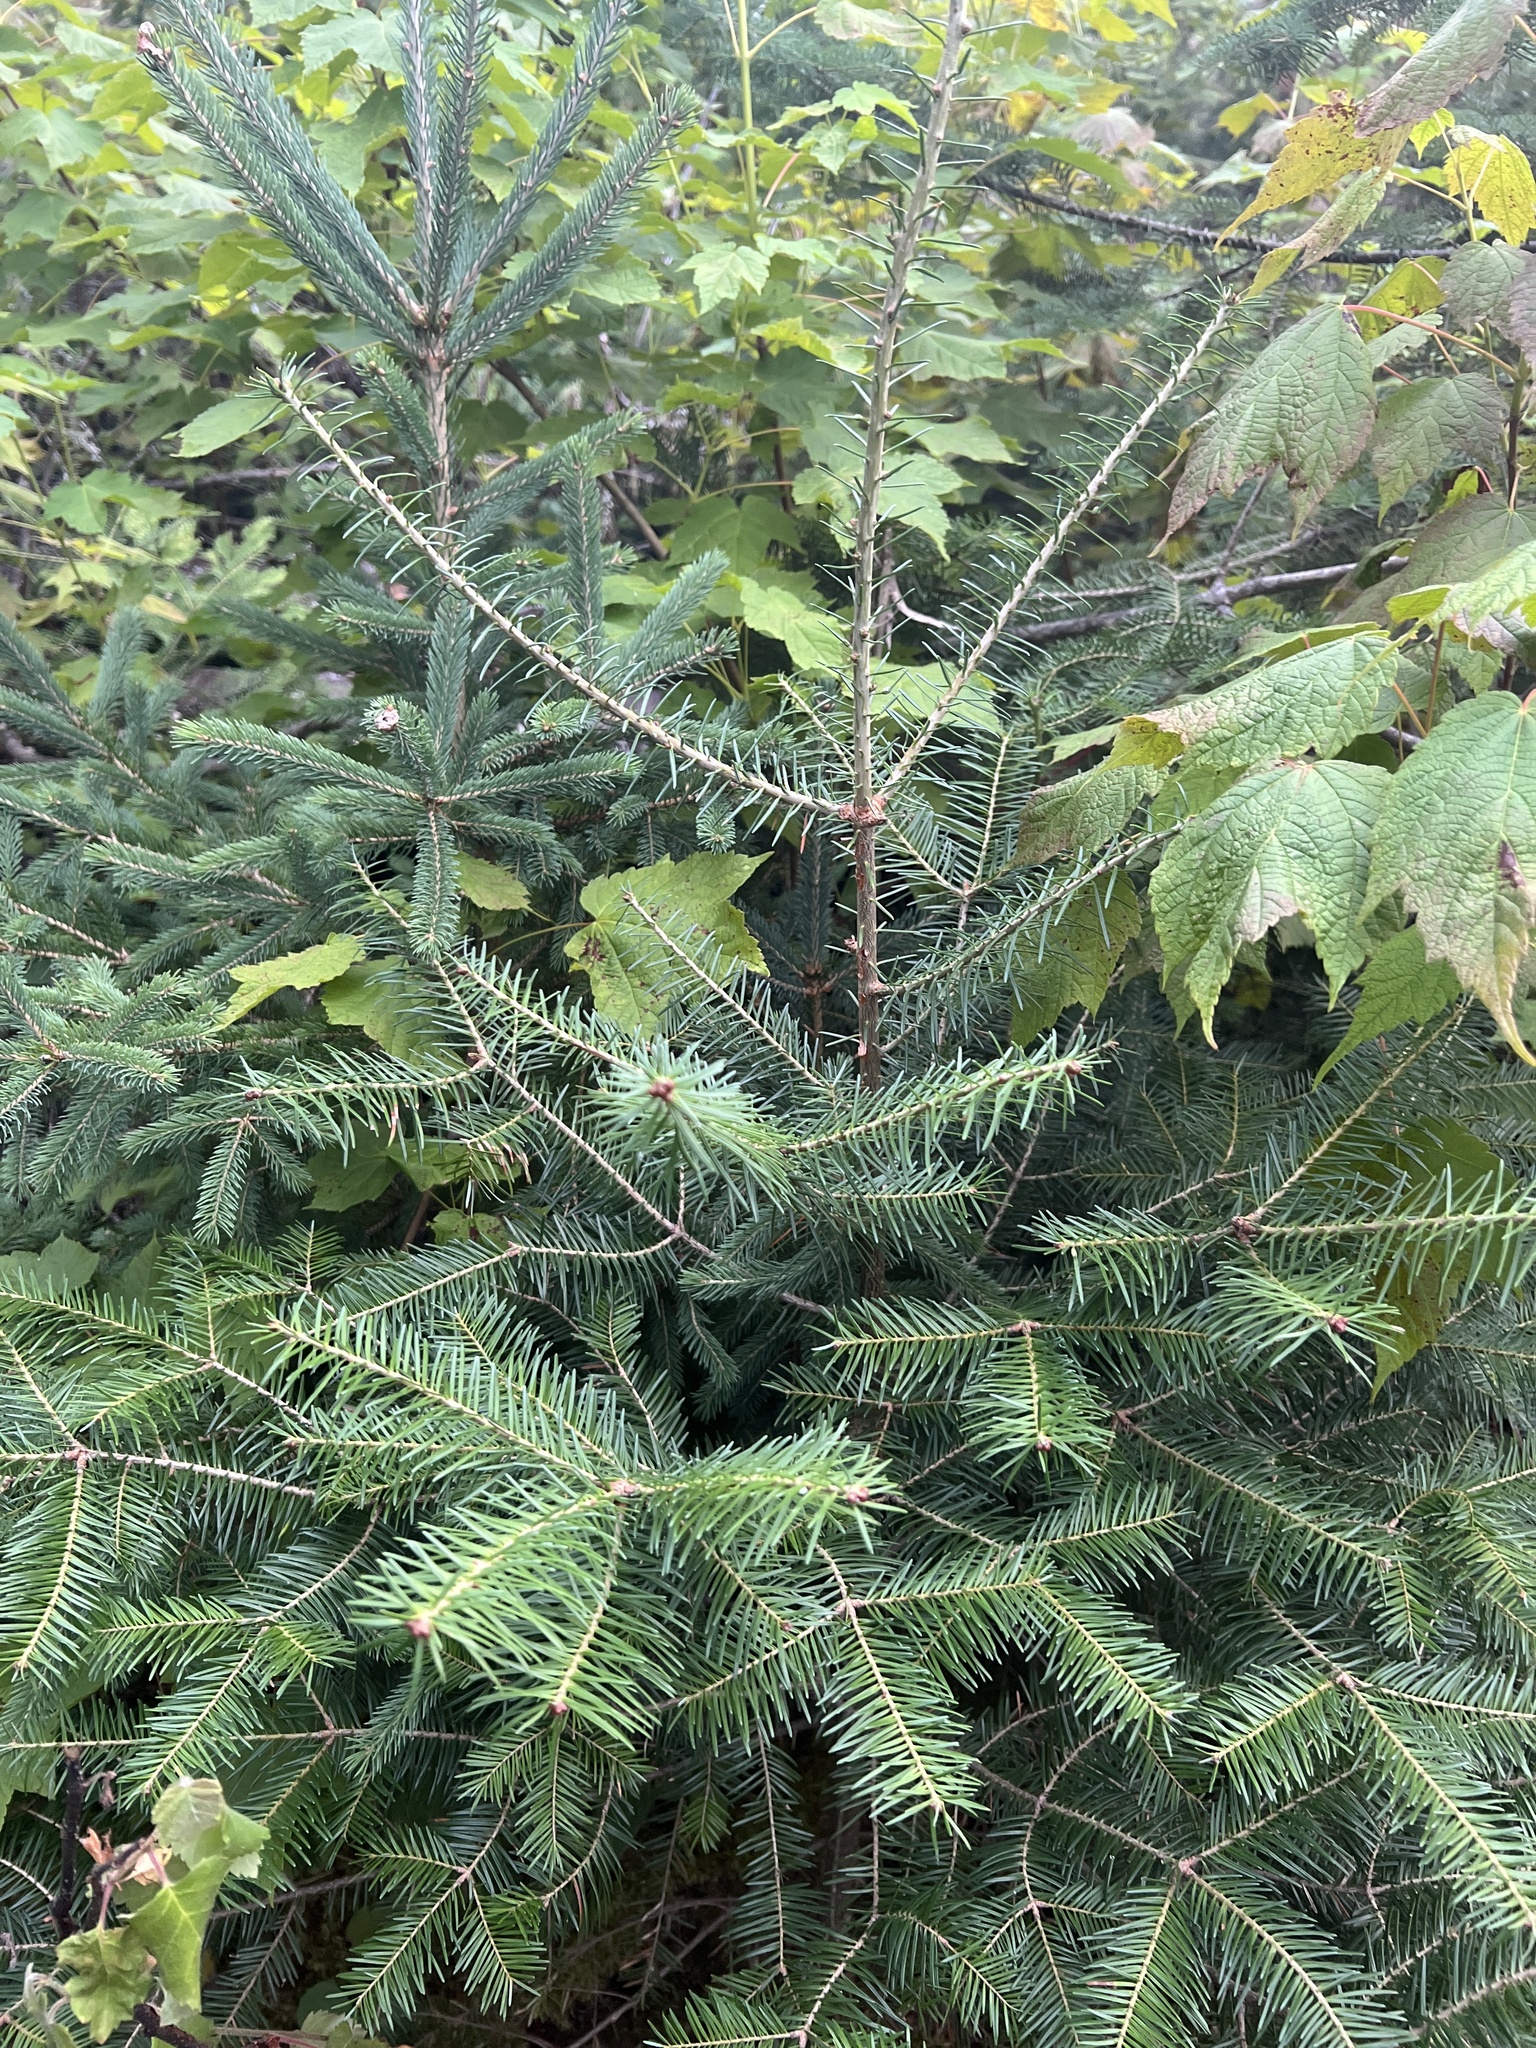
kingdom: Plantae
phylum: Tracheophyta
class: Pinopsida
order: Pinales
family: Pinaceae
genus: Abies
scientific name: Abies balsamea
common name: Balsam fir
